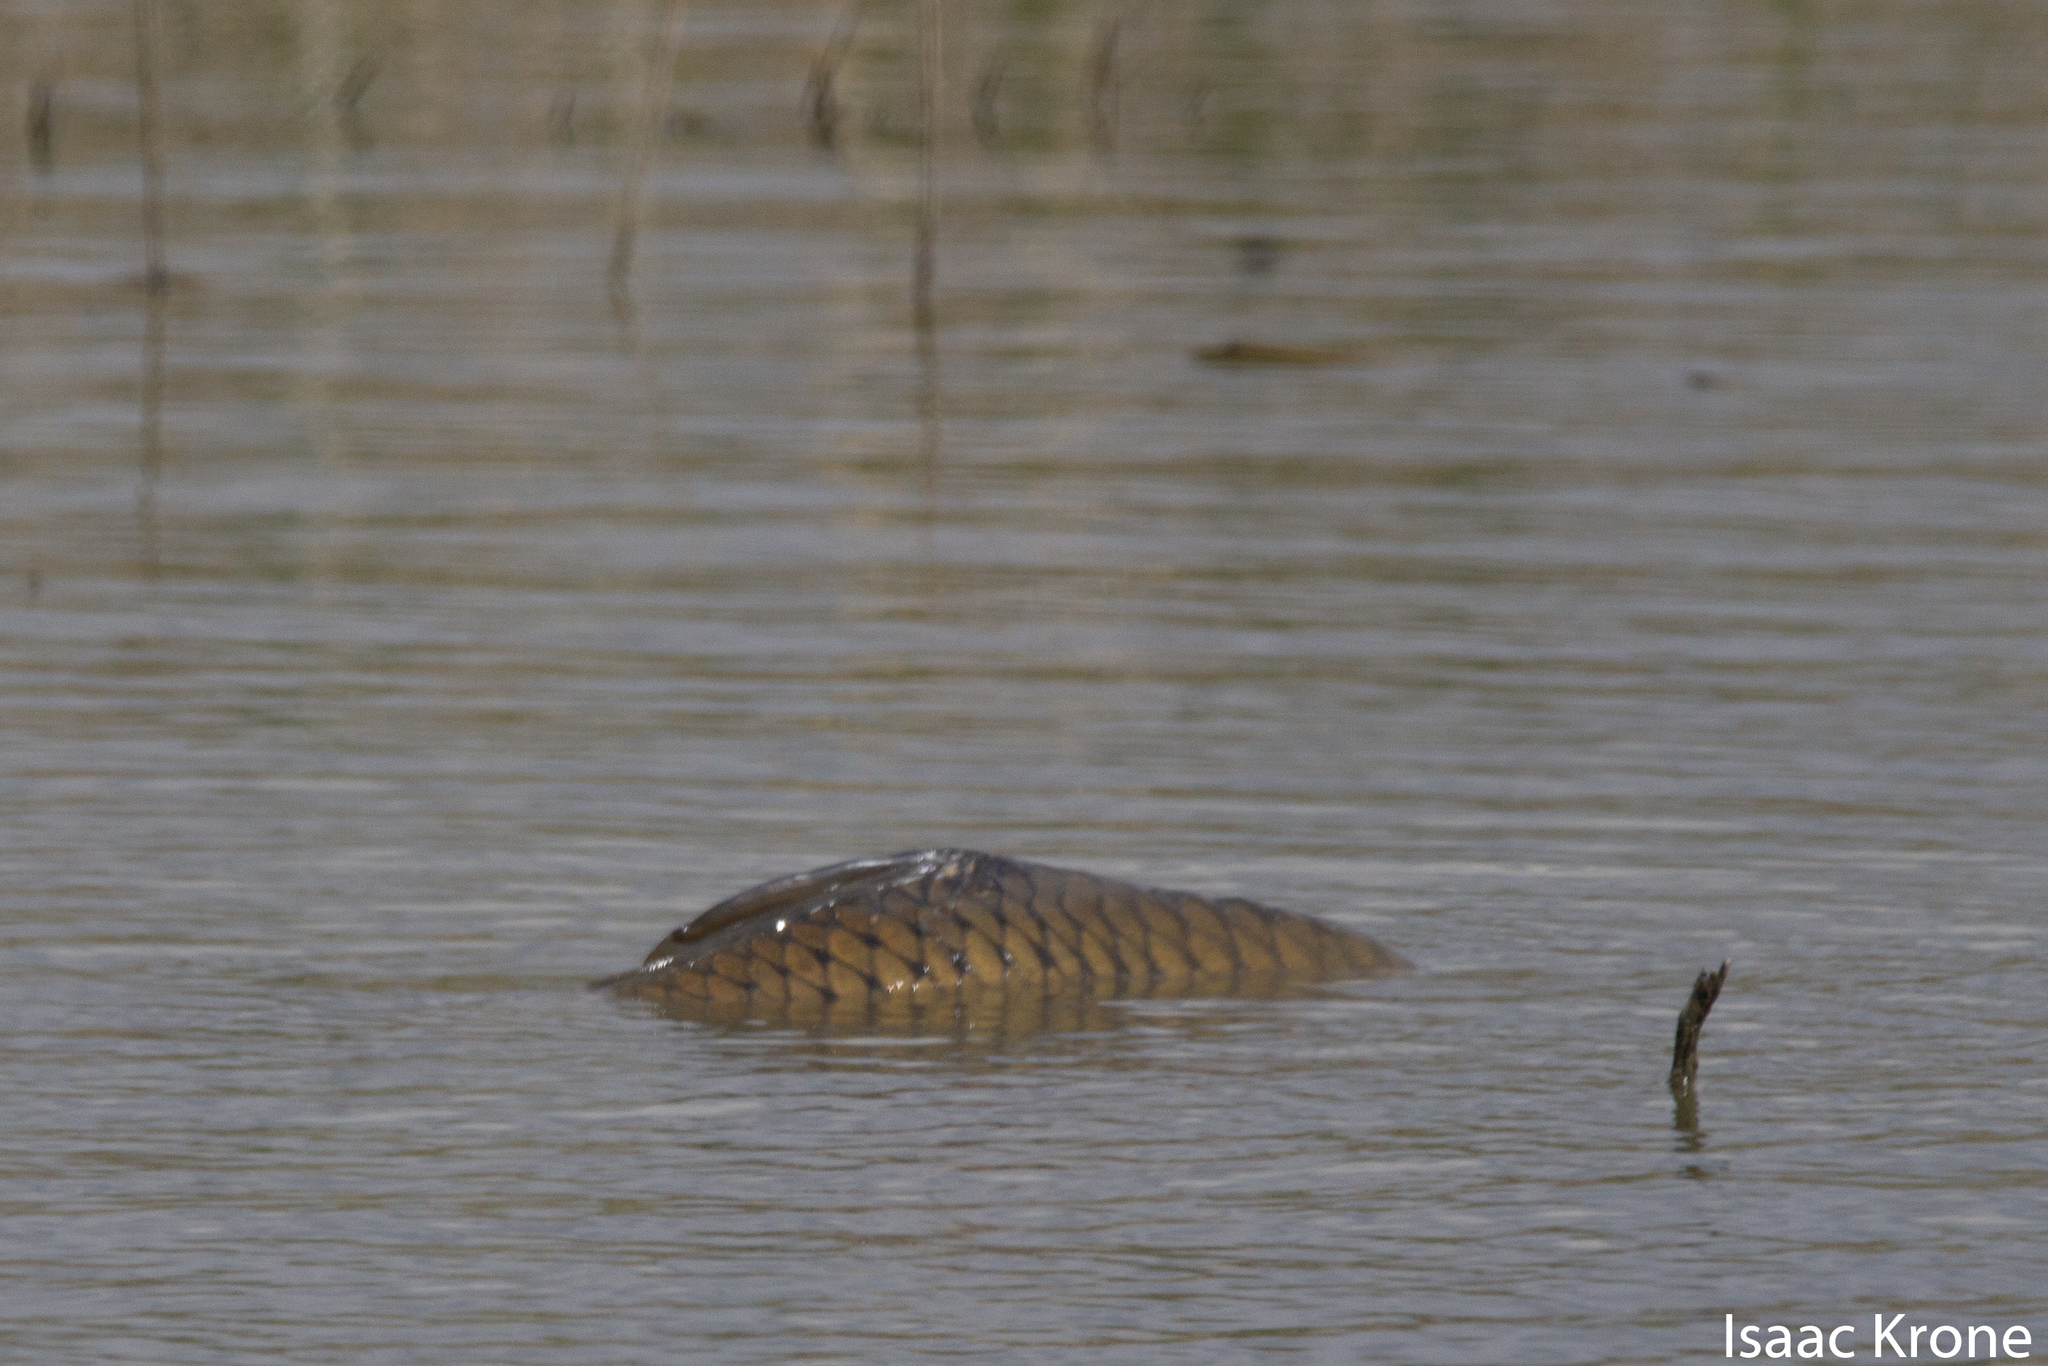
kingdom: Animalia
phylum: Chordata
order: Cypriniformes
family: Cyprinidae
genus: Cyprinus
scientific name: Cyprinus carpio
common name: Common carp
